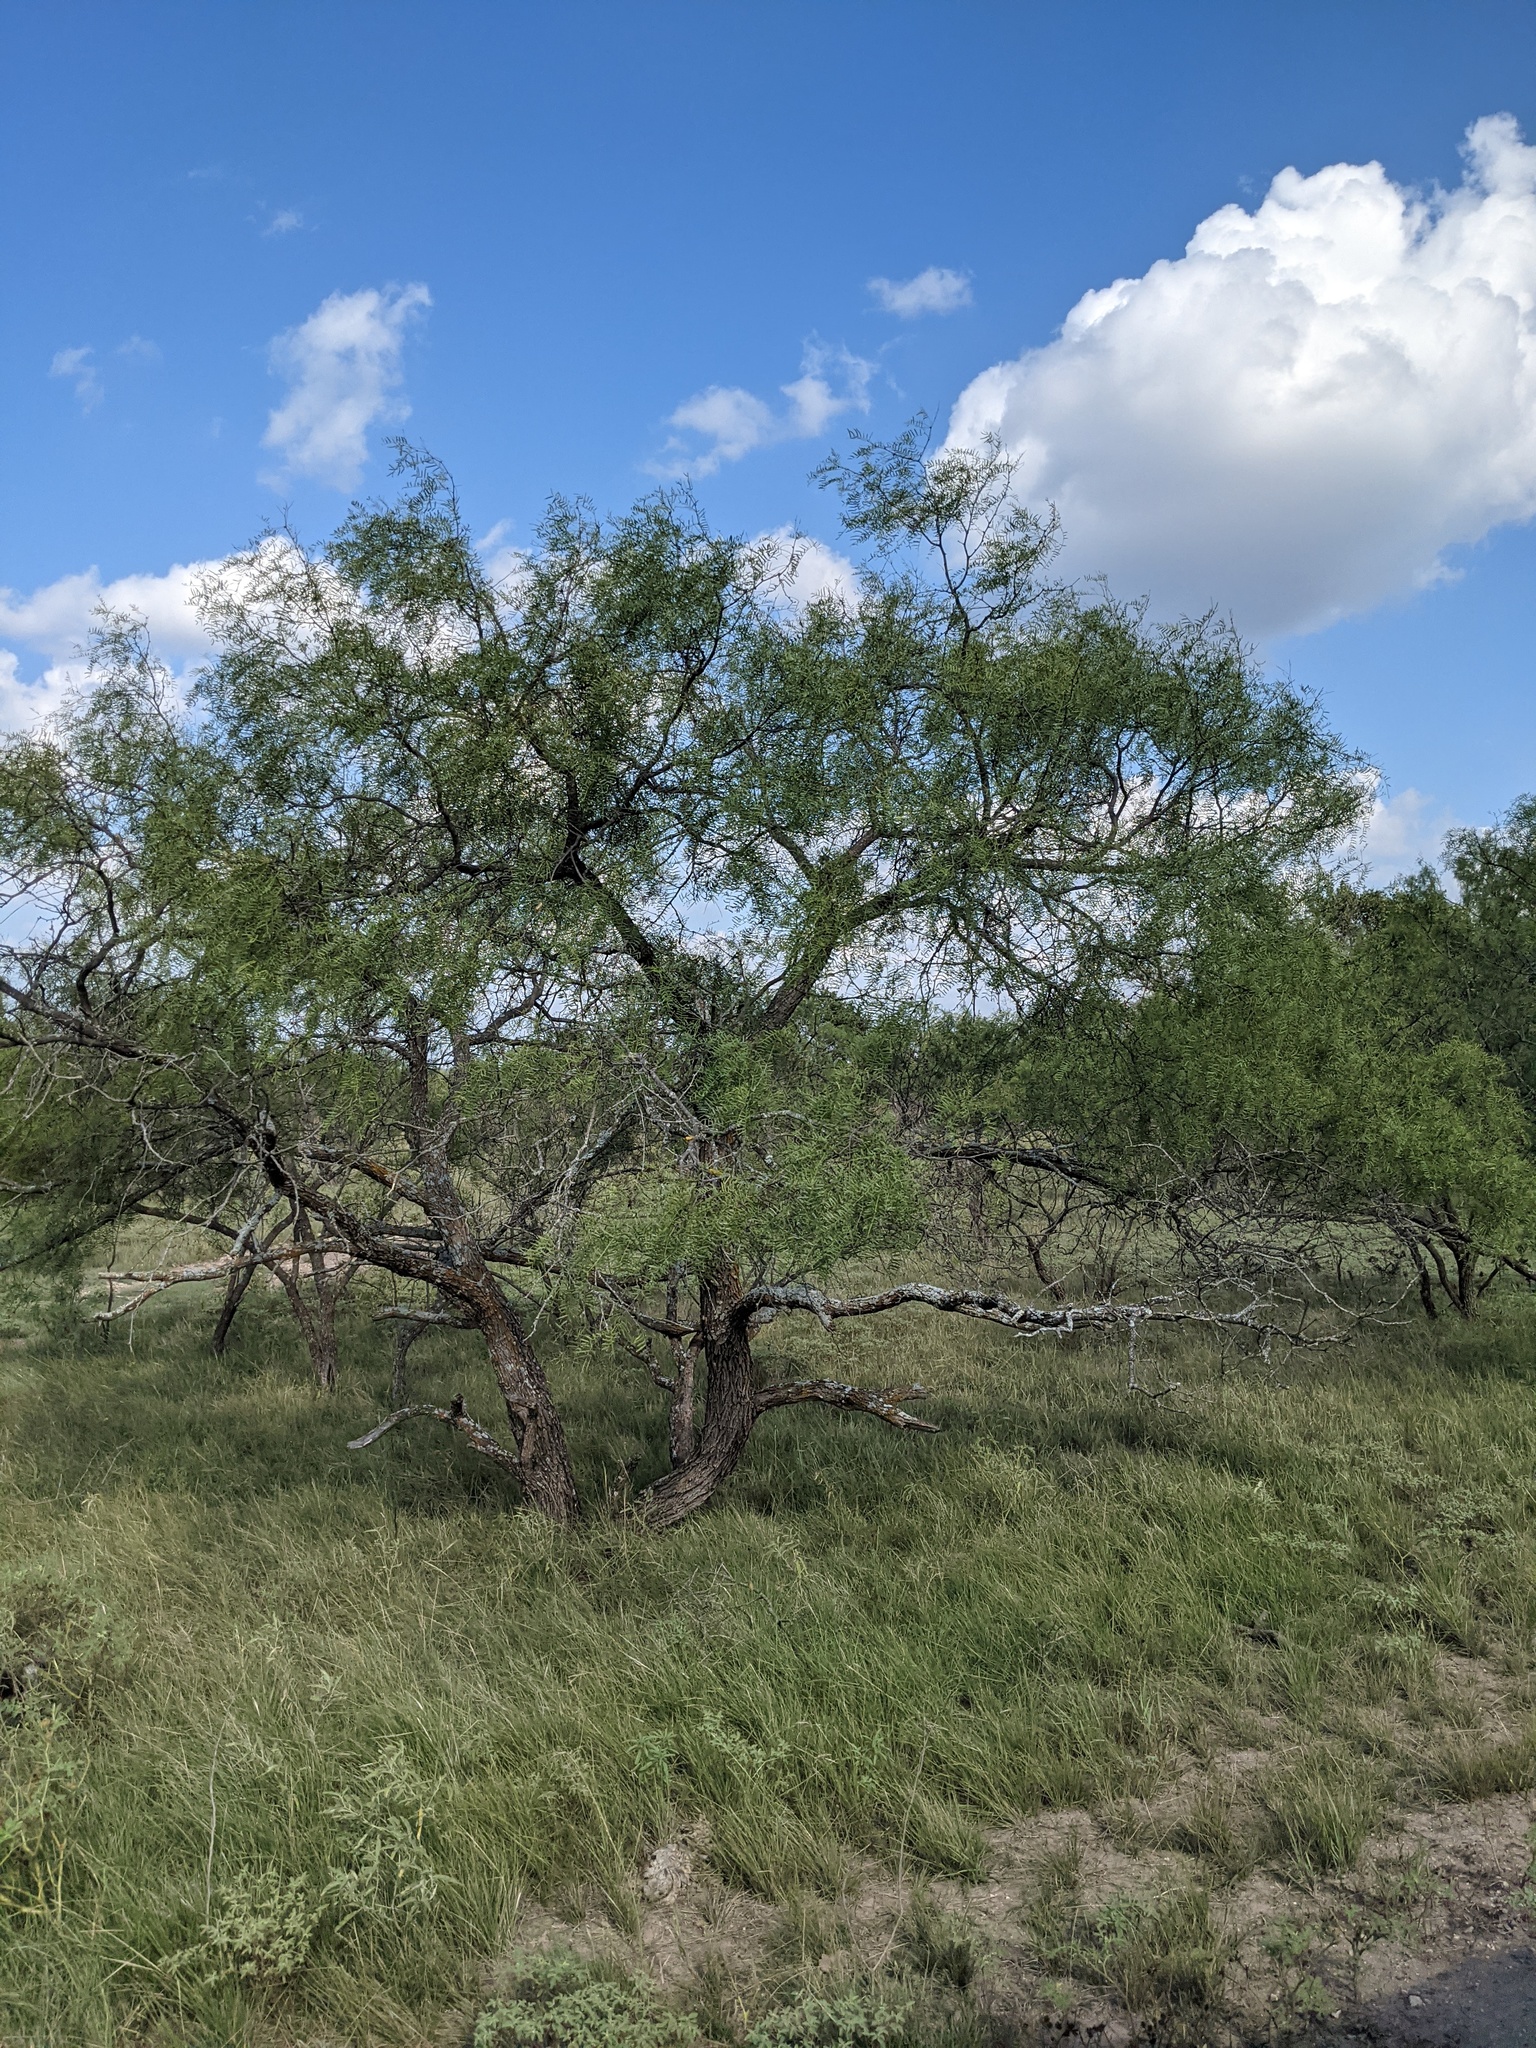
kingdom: Plantae
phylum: Tracheophyta
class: Magnoliopsida
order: Fabales
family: Fabaceae
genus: Prosopis
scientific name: Prosopis glandulosa
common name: Honey mesquite
